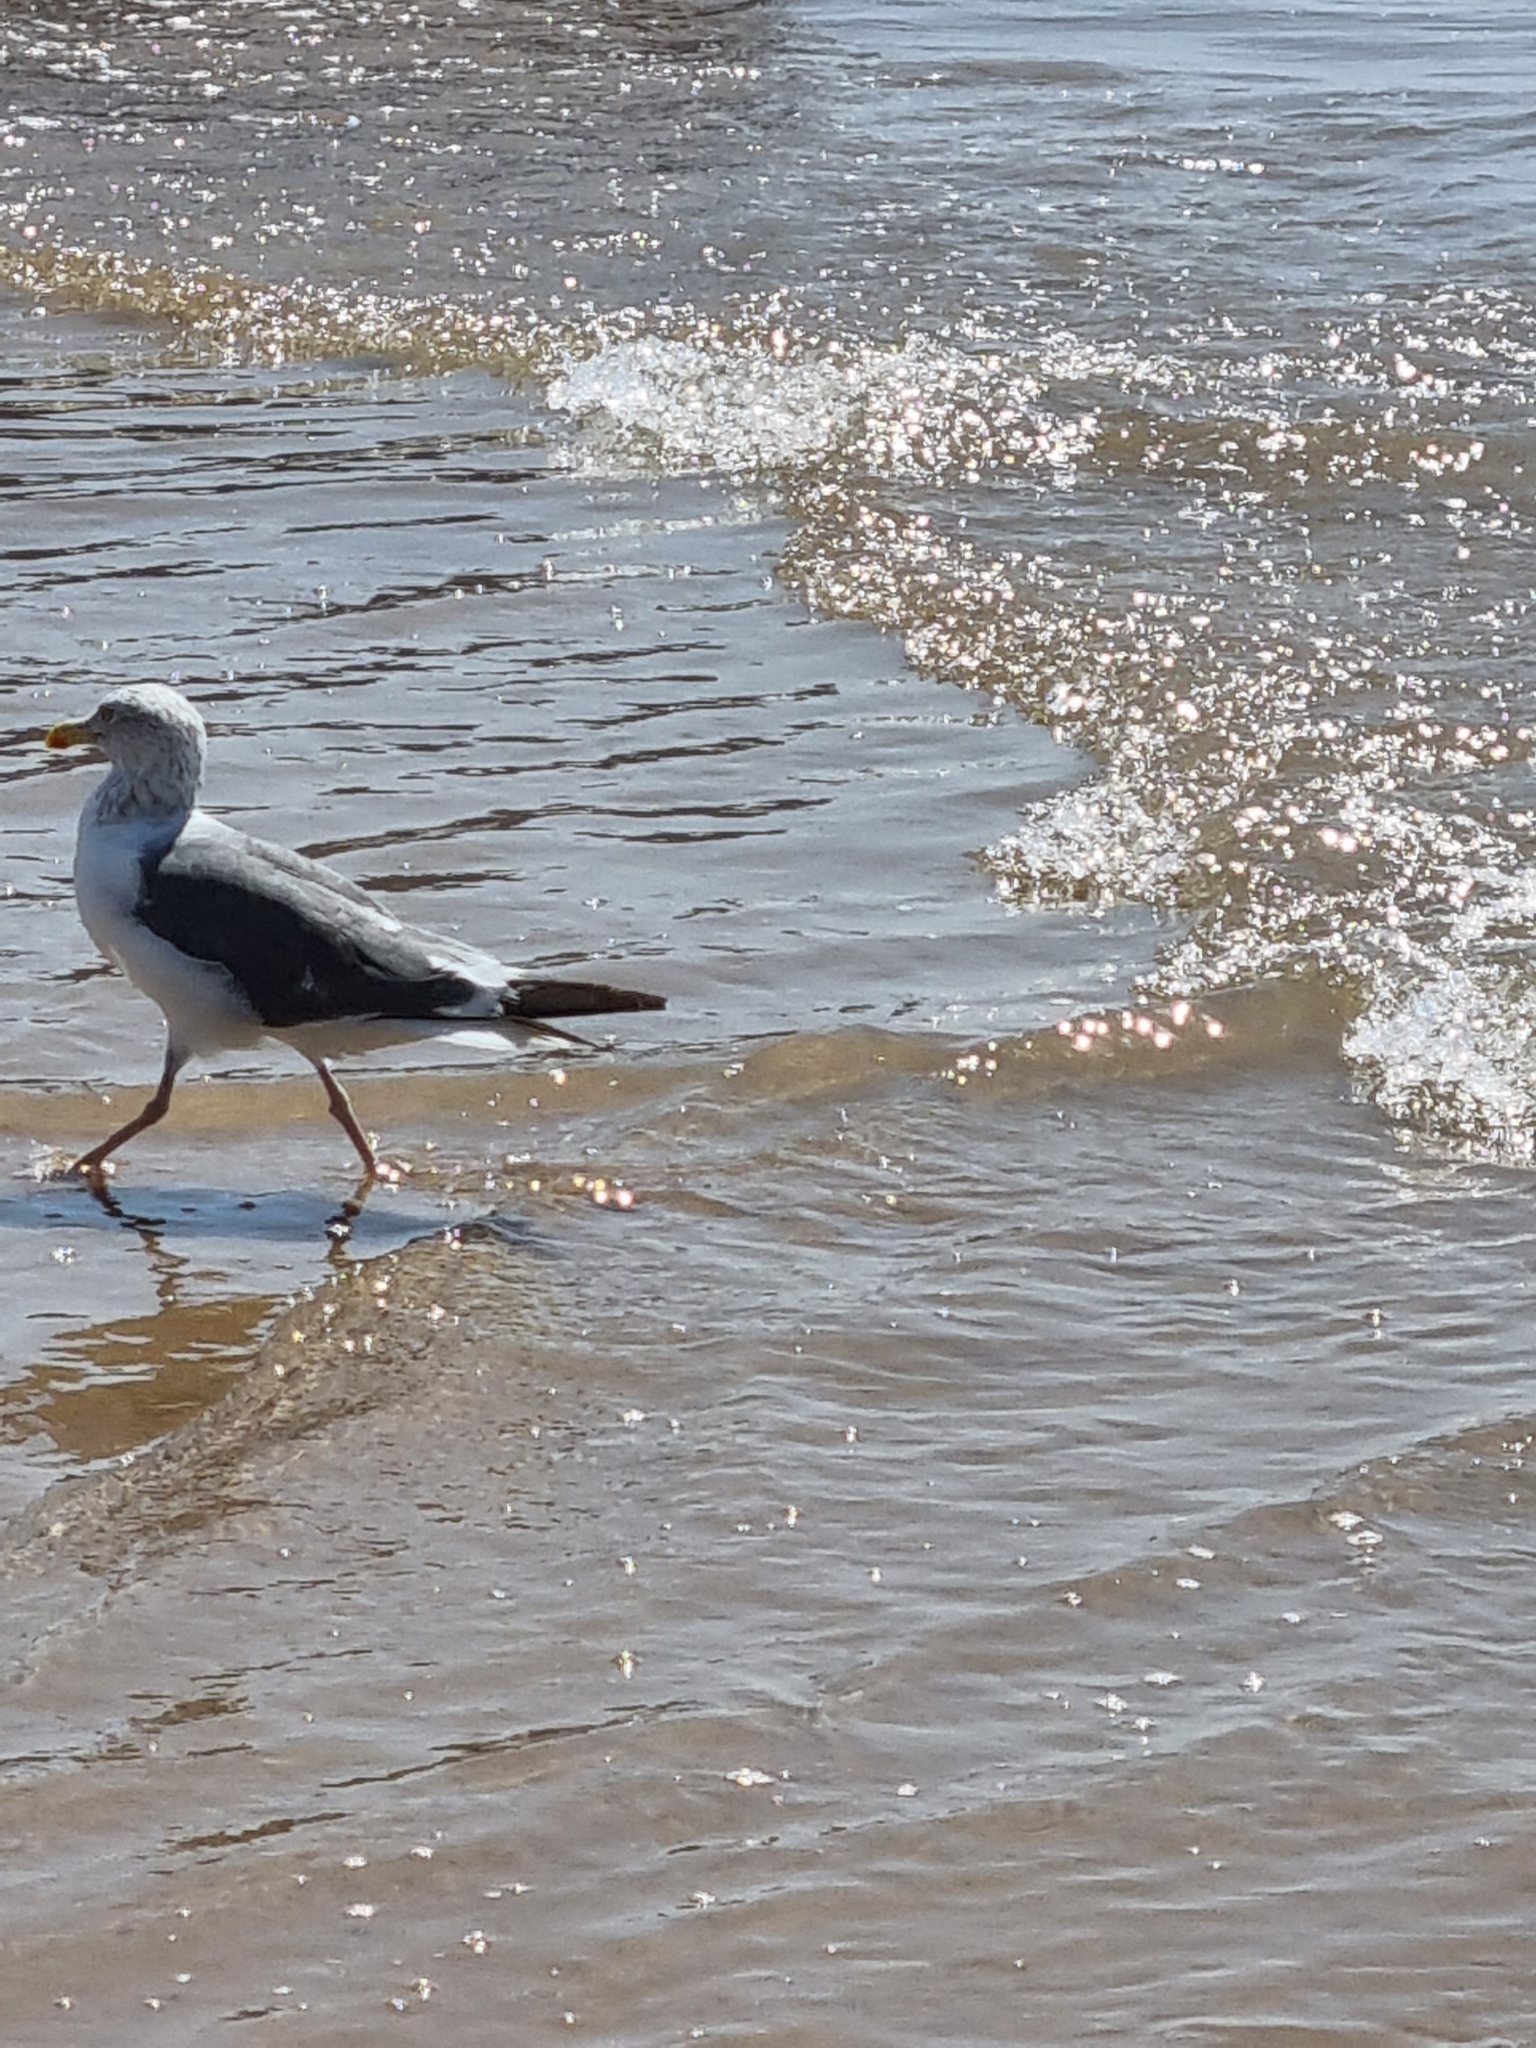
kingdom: Animalia
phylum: Chordata
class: Aves
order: Charadriiformes
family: Laridae
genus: Larus
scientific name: Larus fuscus
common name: Lesser black-backed gull
